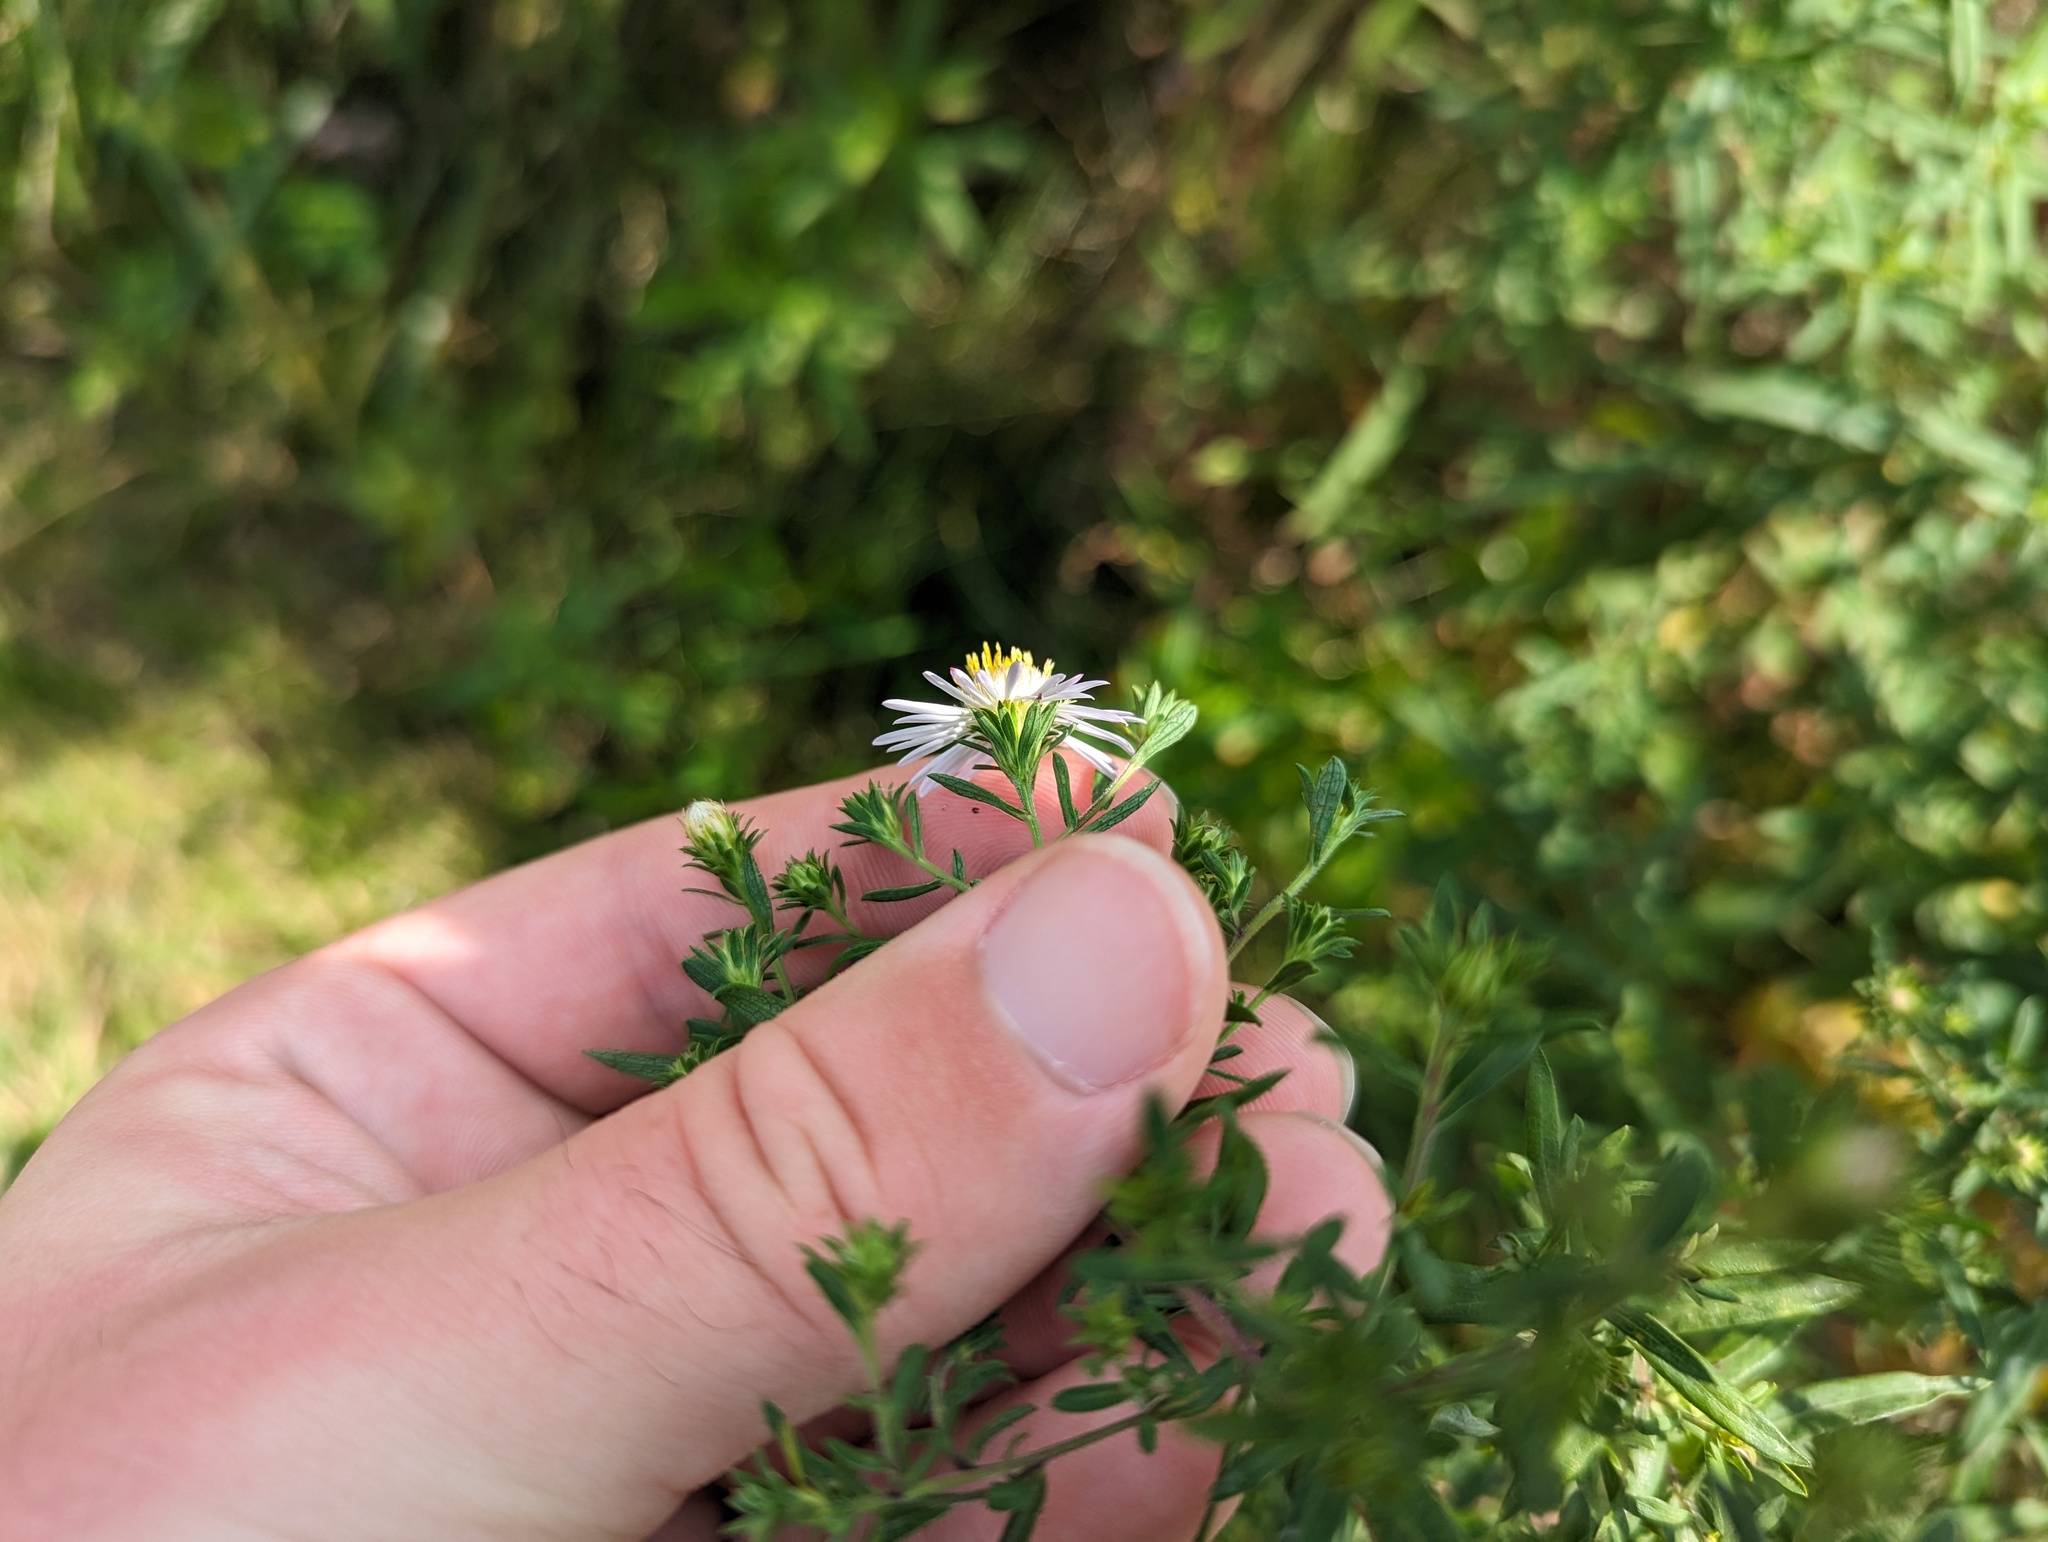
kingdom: Plantae
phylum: Tracheophyta
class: Magnoliopsida
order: Asterales
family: Asteraceae
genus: Symphyotrichum
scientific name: Symphyotrichum praealtum
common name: Willow aster
